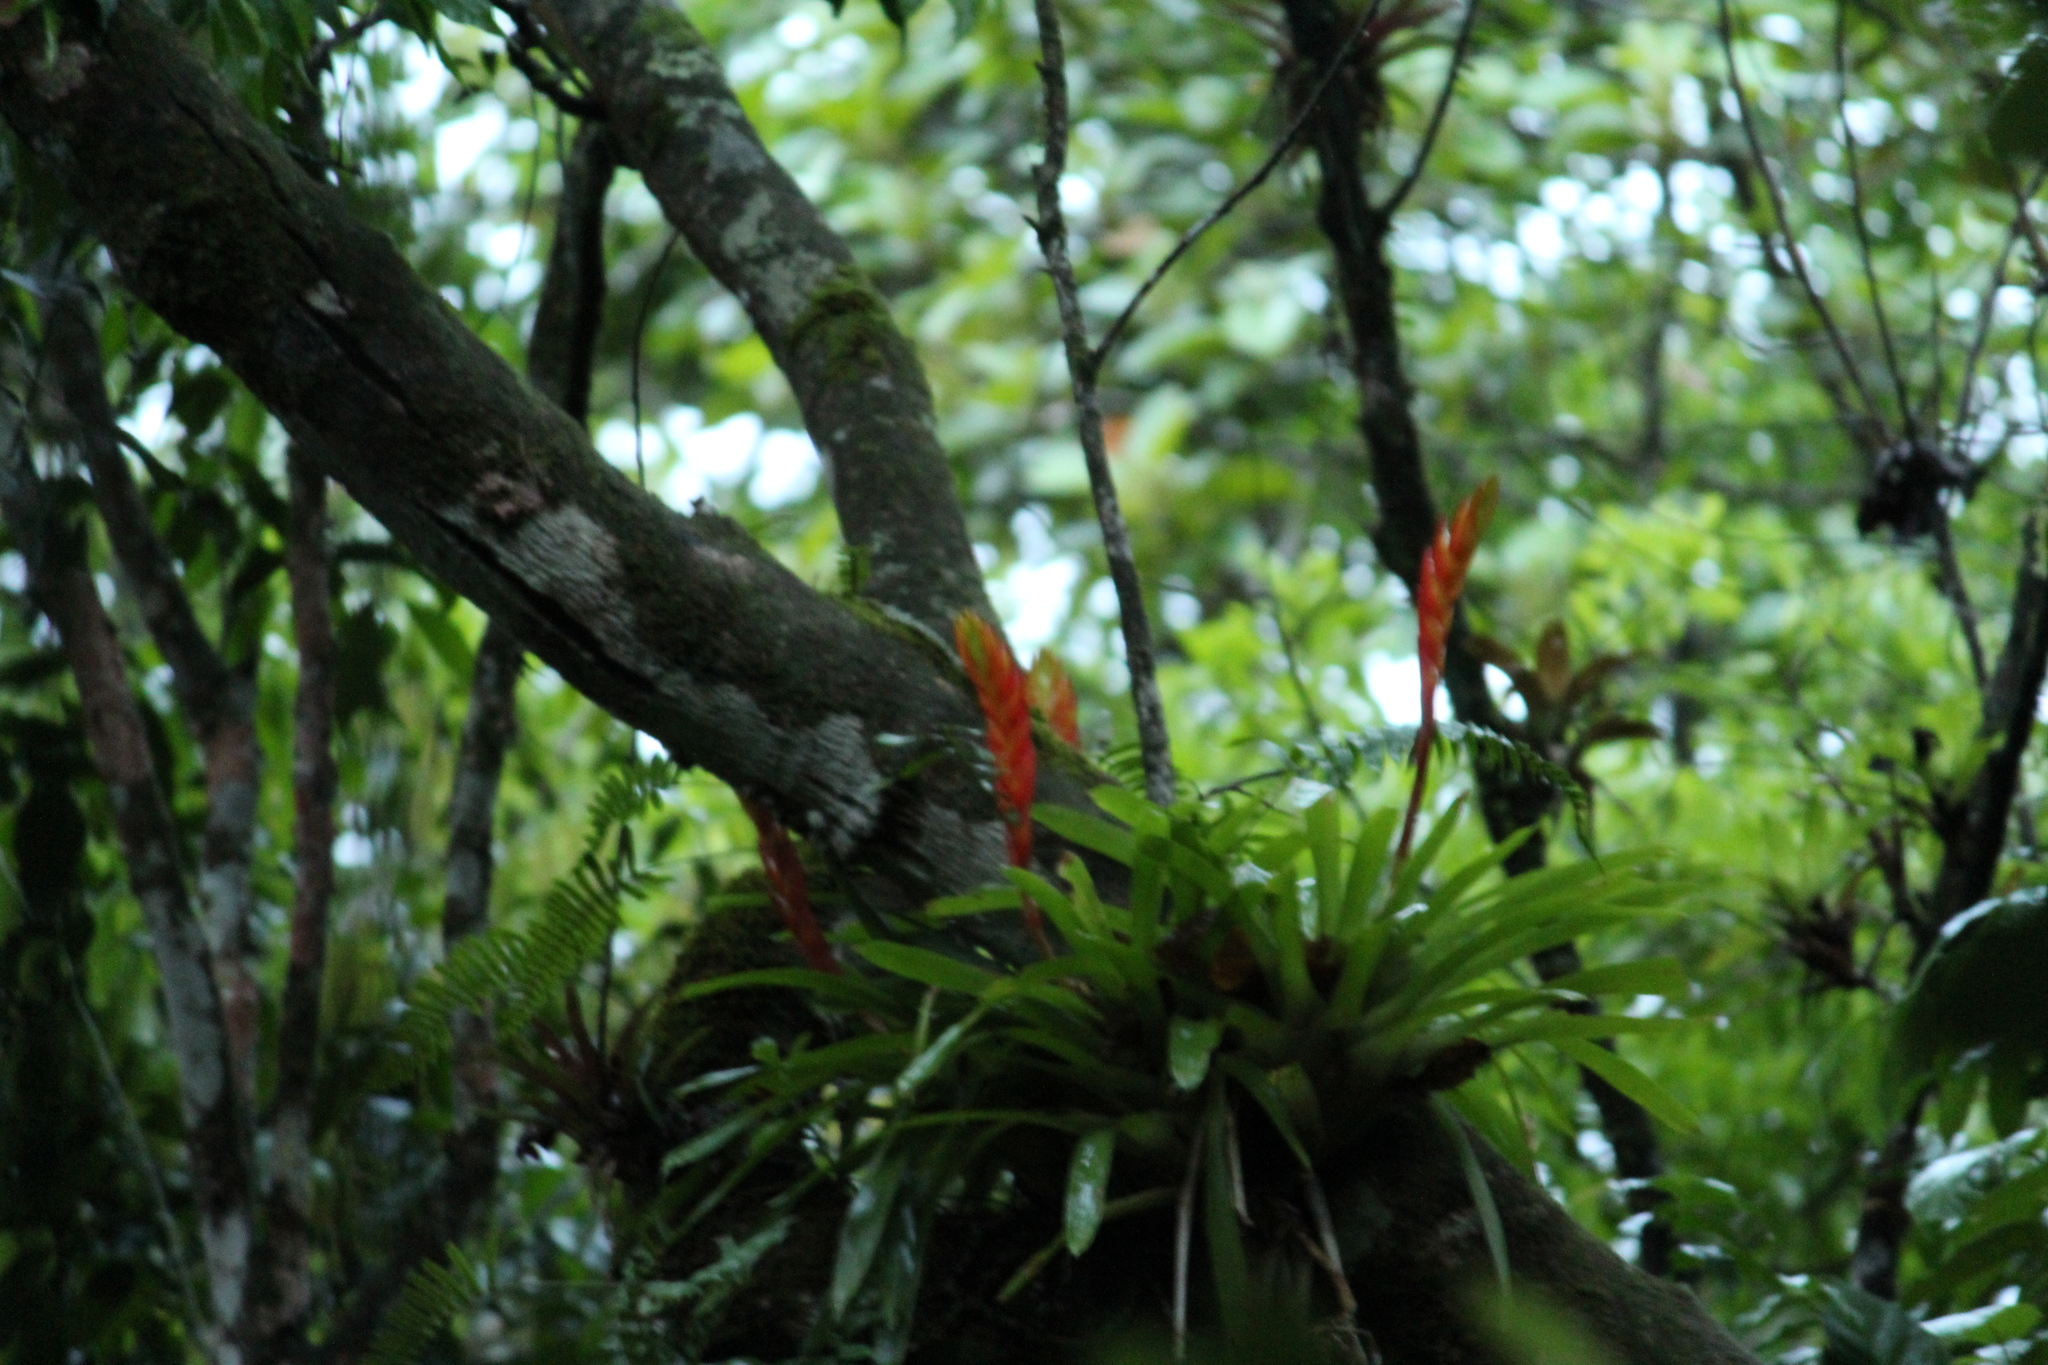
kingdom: Plantae
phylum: Tracheophyta
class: Liliopsida
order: Poales
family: Bromeliaceae
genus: Vriesea
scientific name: Vriesea incurvata
